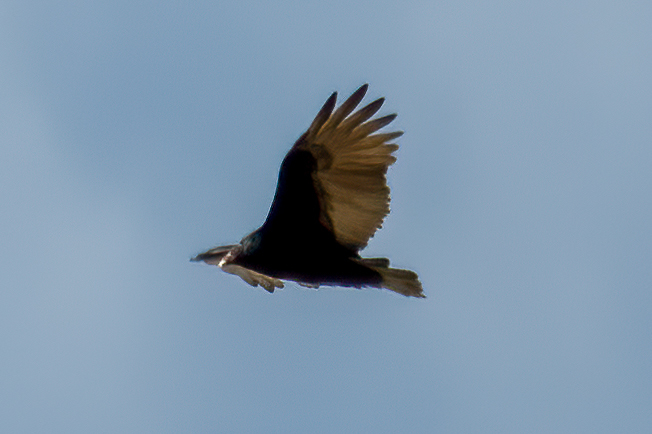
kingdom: Animalia
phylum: Chordata
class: Aves
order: Accipitriformes
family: Cathartidae
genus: Cathartes
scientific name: Cathartes aura
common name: Turkey vulture
